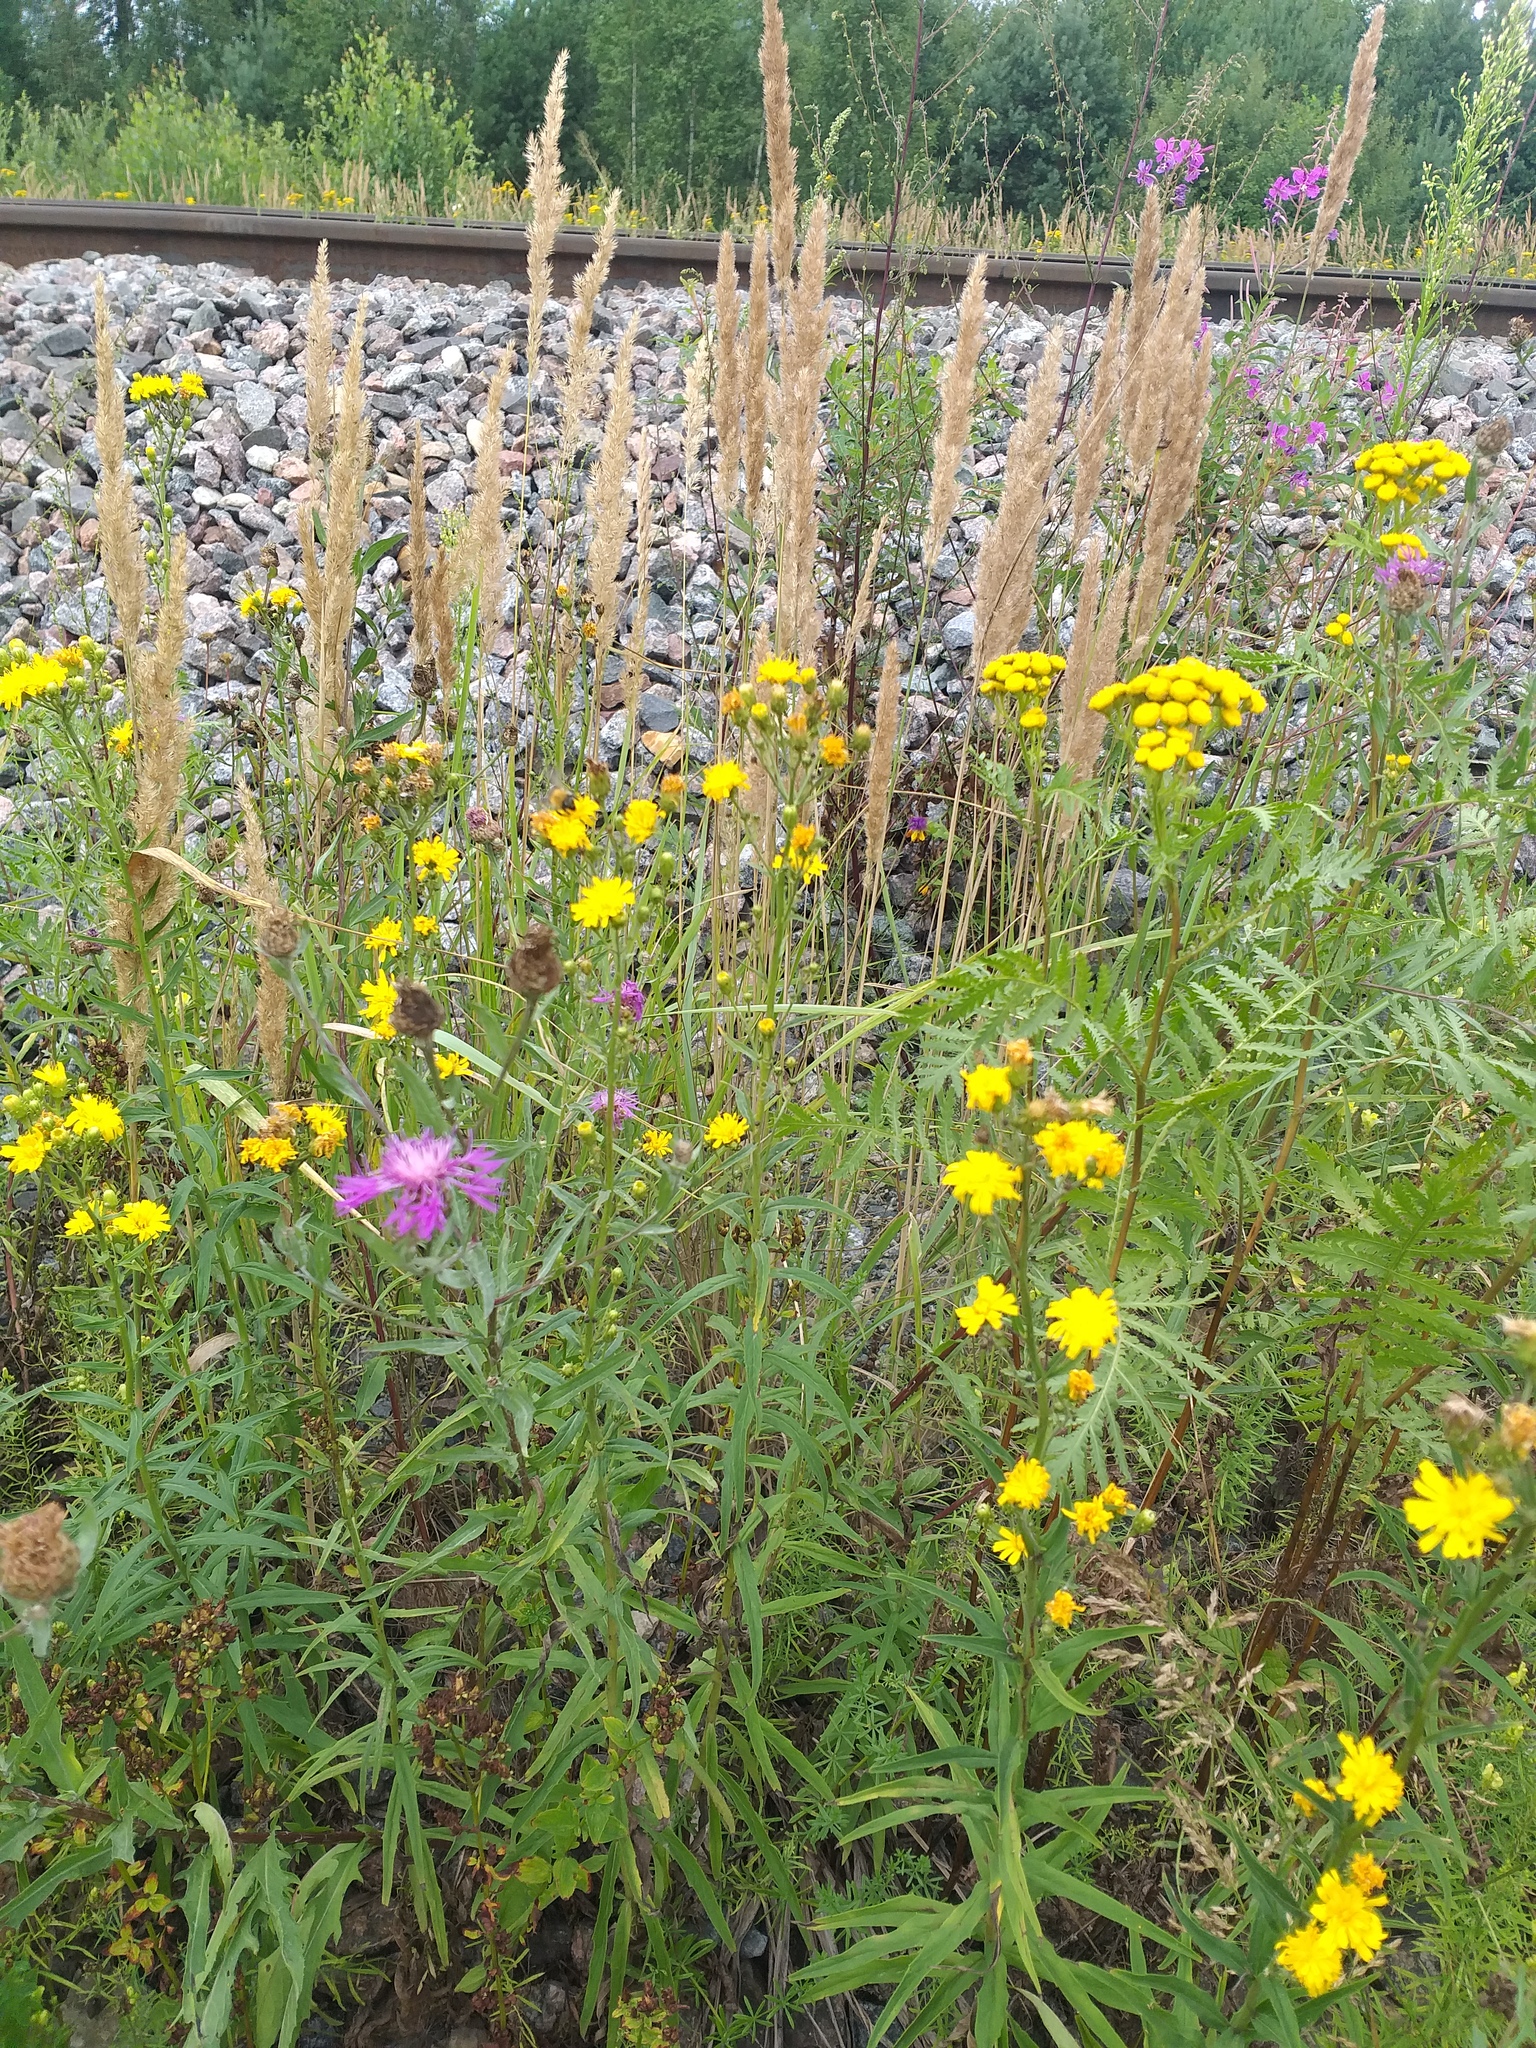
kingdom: Plantae
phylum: Tracheophyta
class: Liliopsida
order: Poales
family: Poaceae
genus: Calamagrostis
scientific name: Calamagrostis epigejos
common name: Wood small-reed
